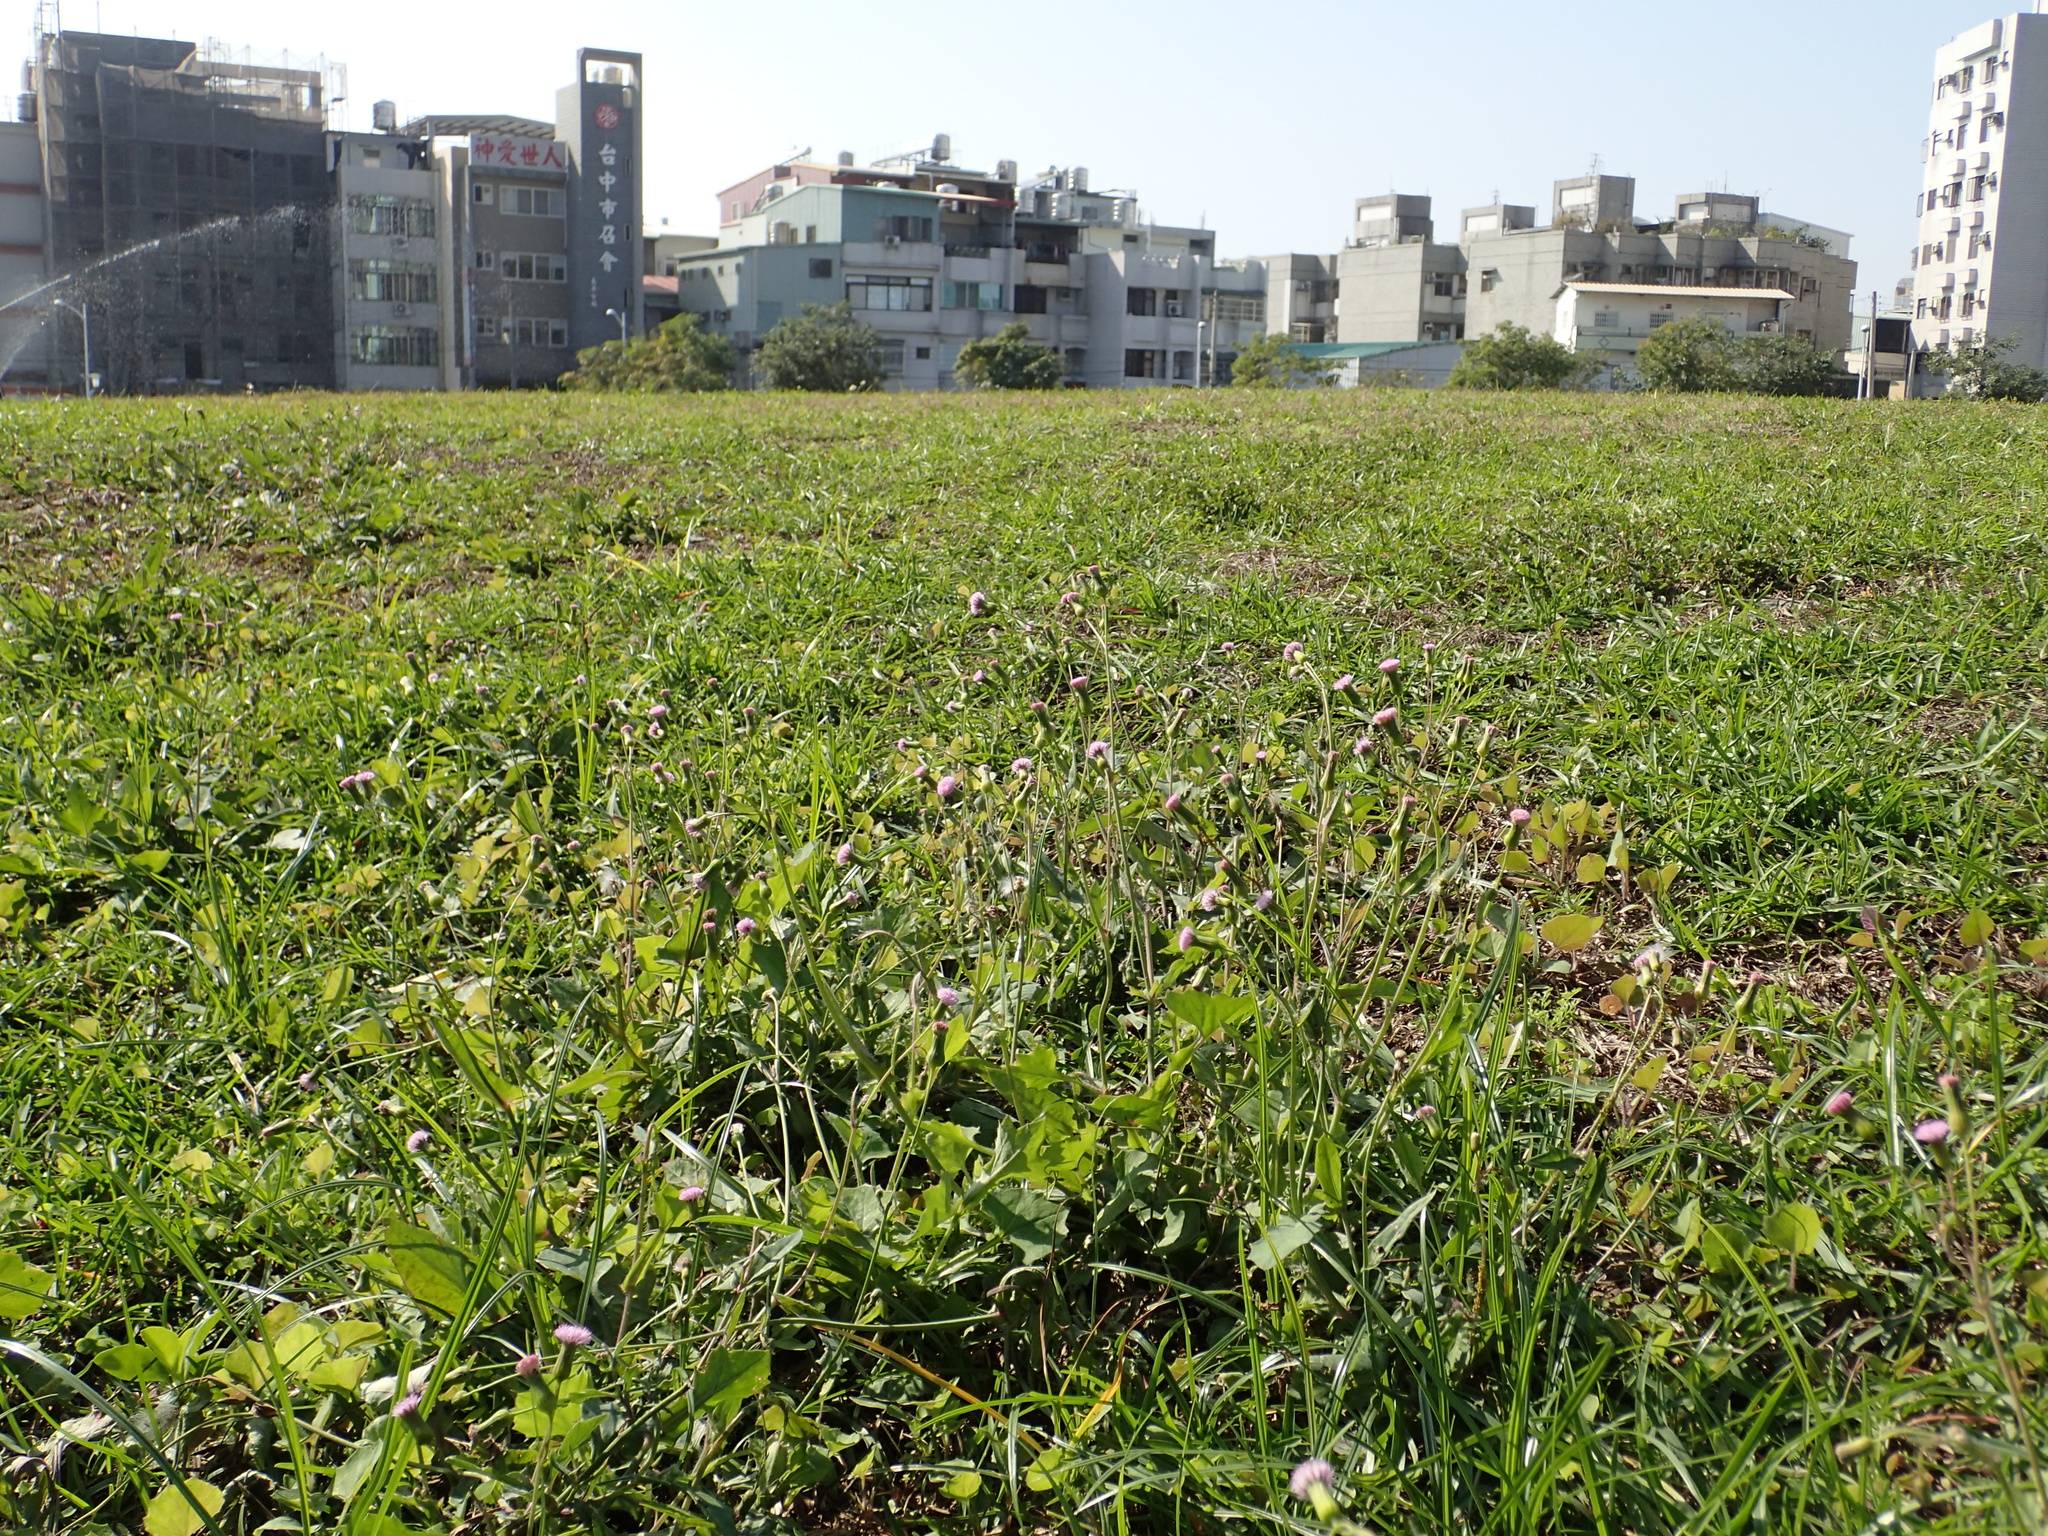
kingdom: Plantae
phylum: Tracheophyta
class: Magnoliopsida
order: Asterales
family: Asteraceae
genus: Emilia
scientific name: Emilia javanica
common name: Tassel-flower
